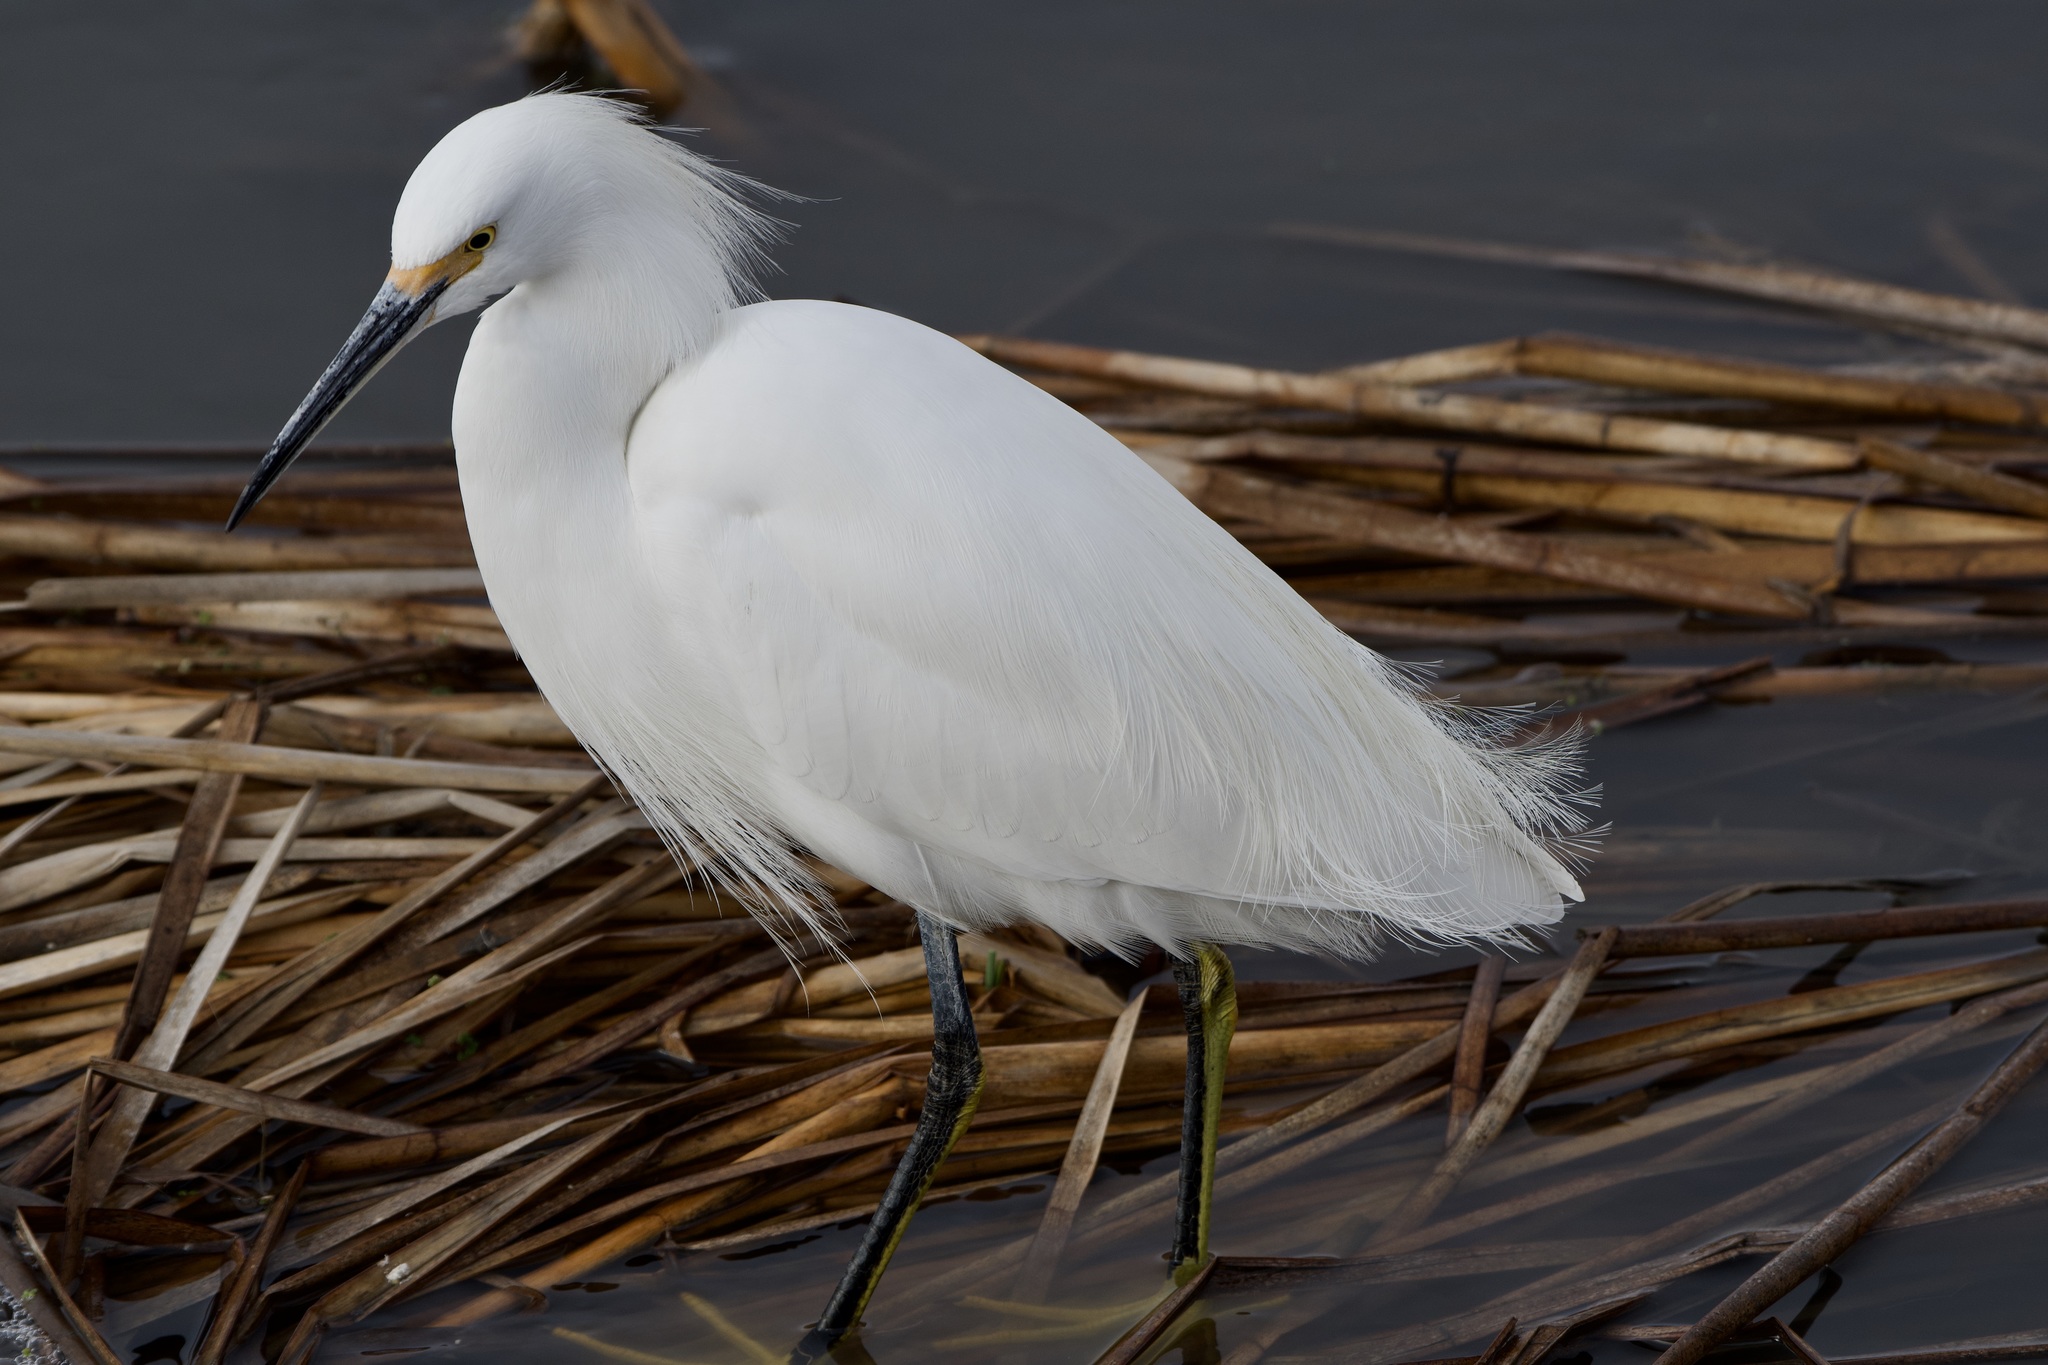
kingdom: Animalia
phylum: Chordata
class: Aves
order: Pelecaniformes
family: Ardeidae
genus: Egretta
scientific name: Egretta thula
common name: Snowy egret
